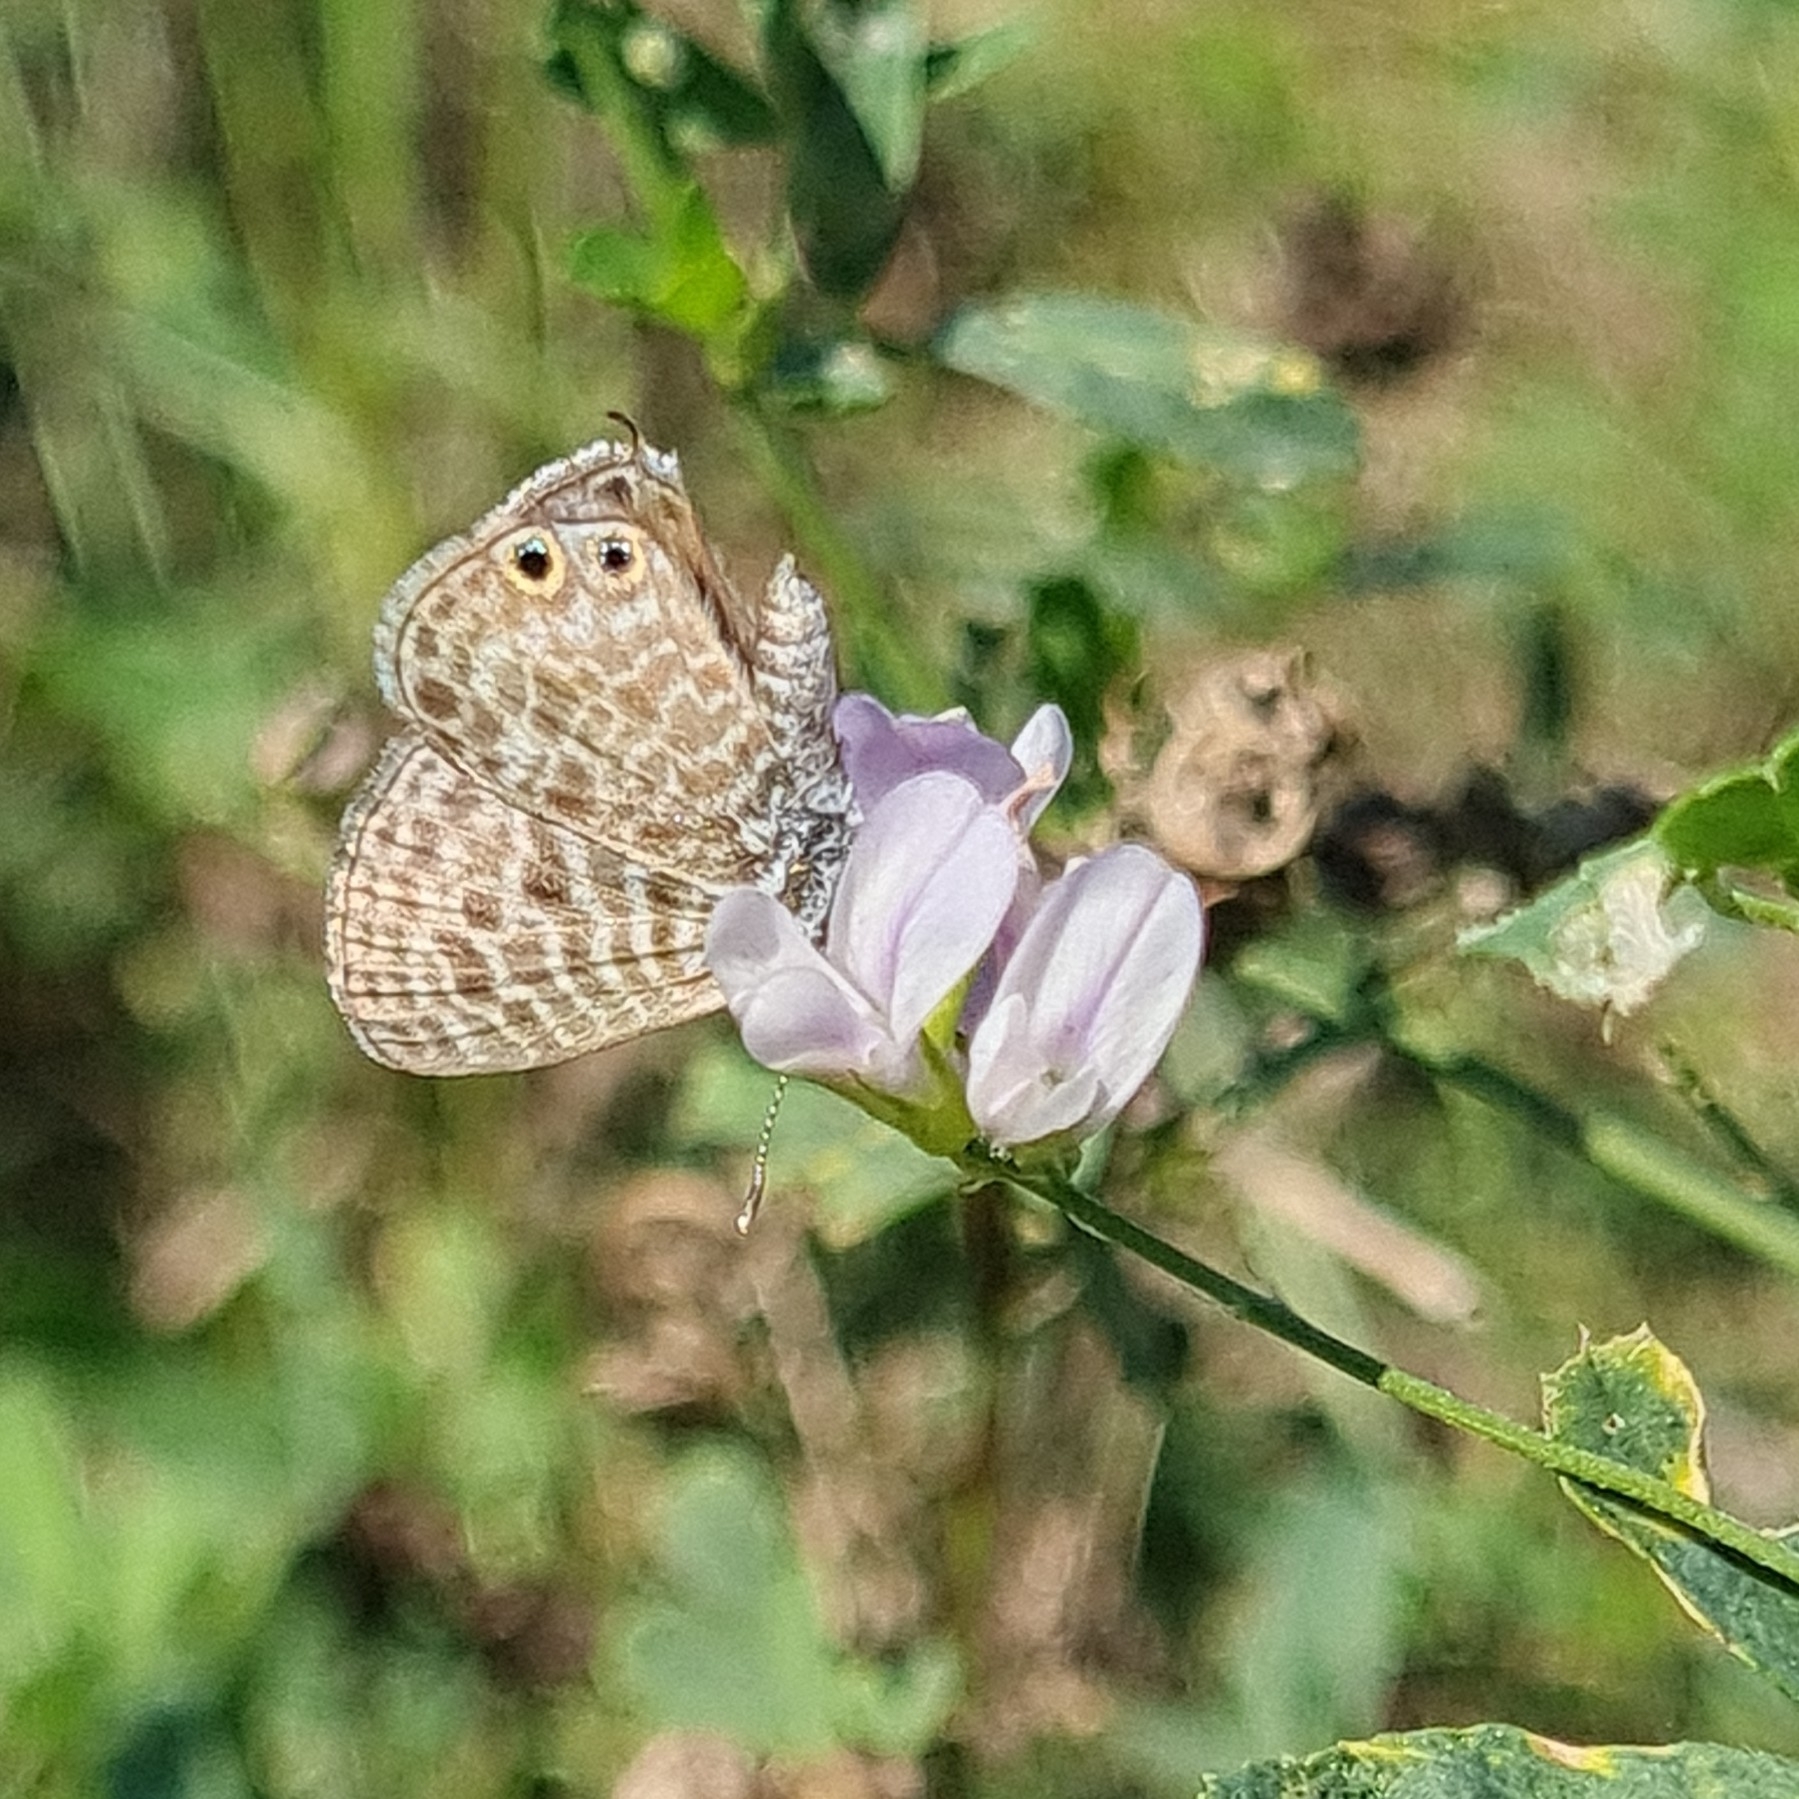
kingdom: Animalia
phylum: Arthropoda
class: Insecta
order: Lepidoptera
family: Lycaenidae
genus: Leptotes
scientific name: Leptotes pirithous
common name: Lang's short-tailed blue
